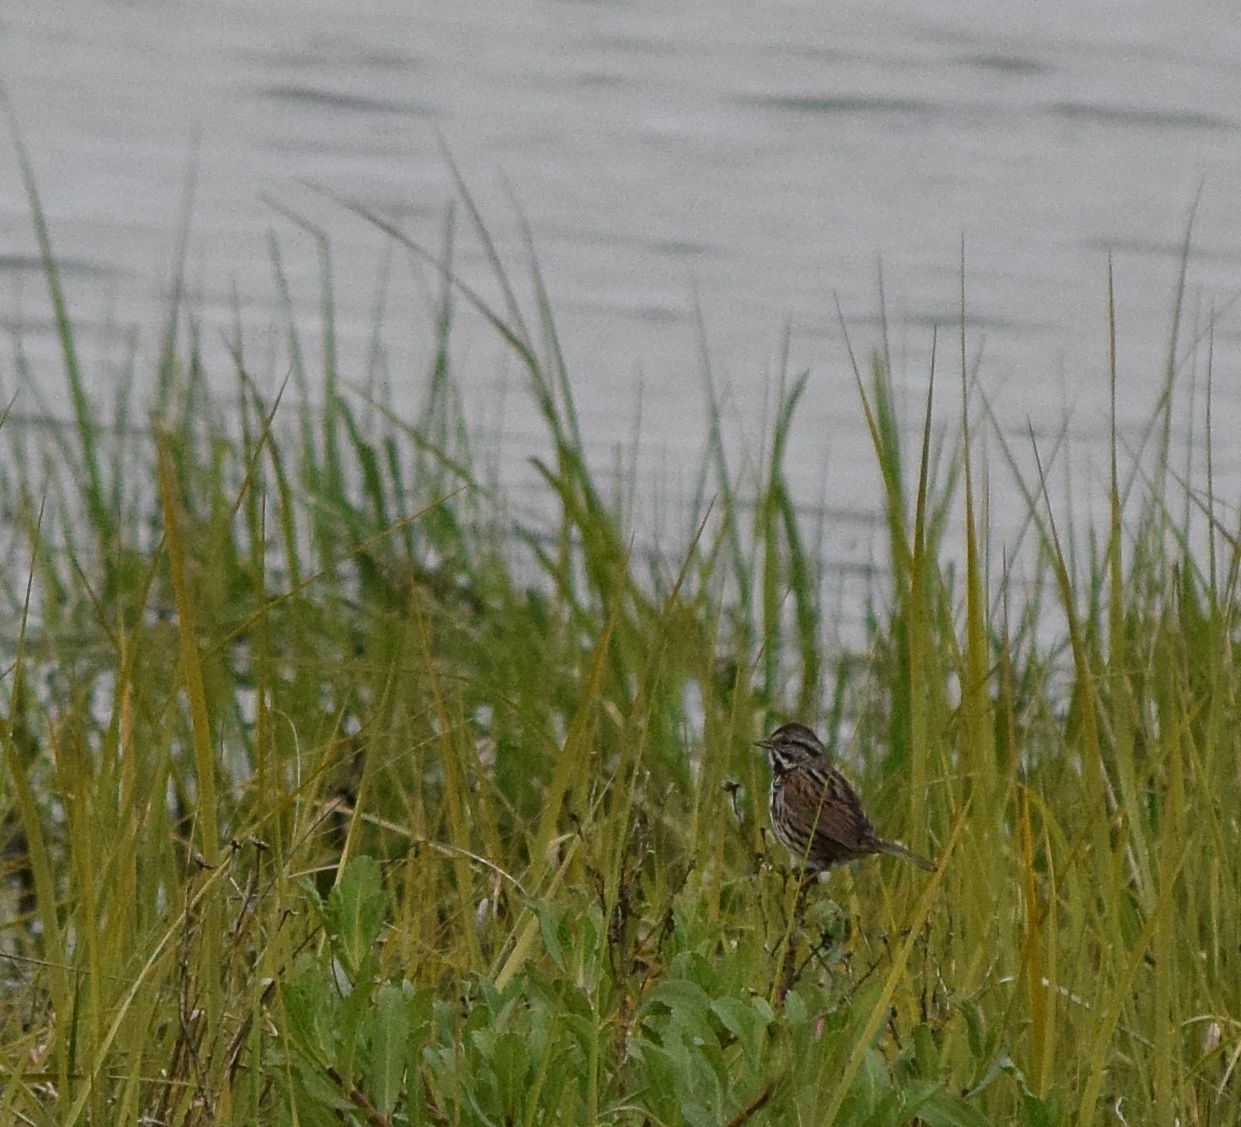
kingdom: Animalia
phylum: Chordata
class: Aves
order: Passeriformes
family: Passerellidae
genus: Melospiza
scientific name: Melospiza melodia
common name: Song sparrow
